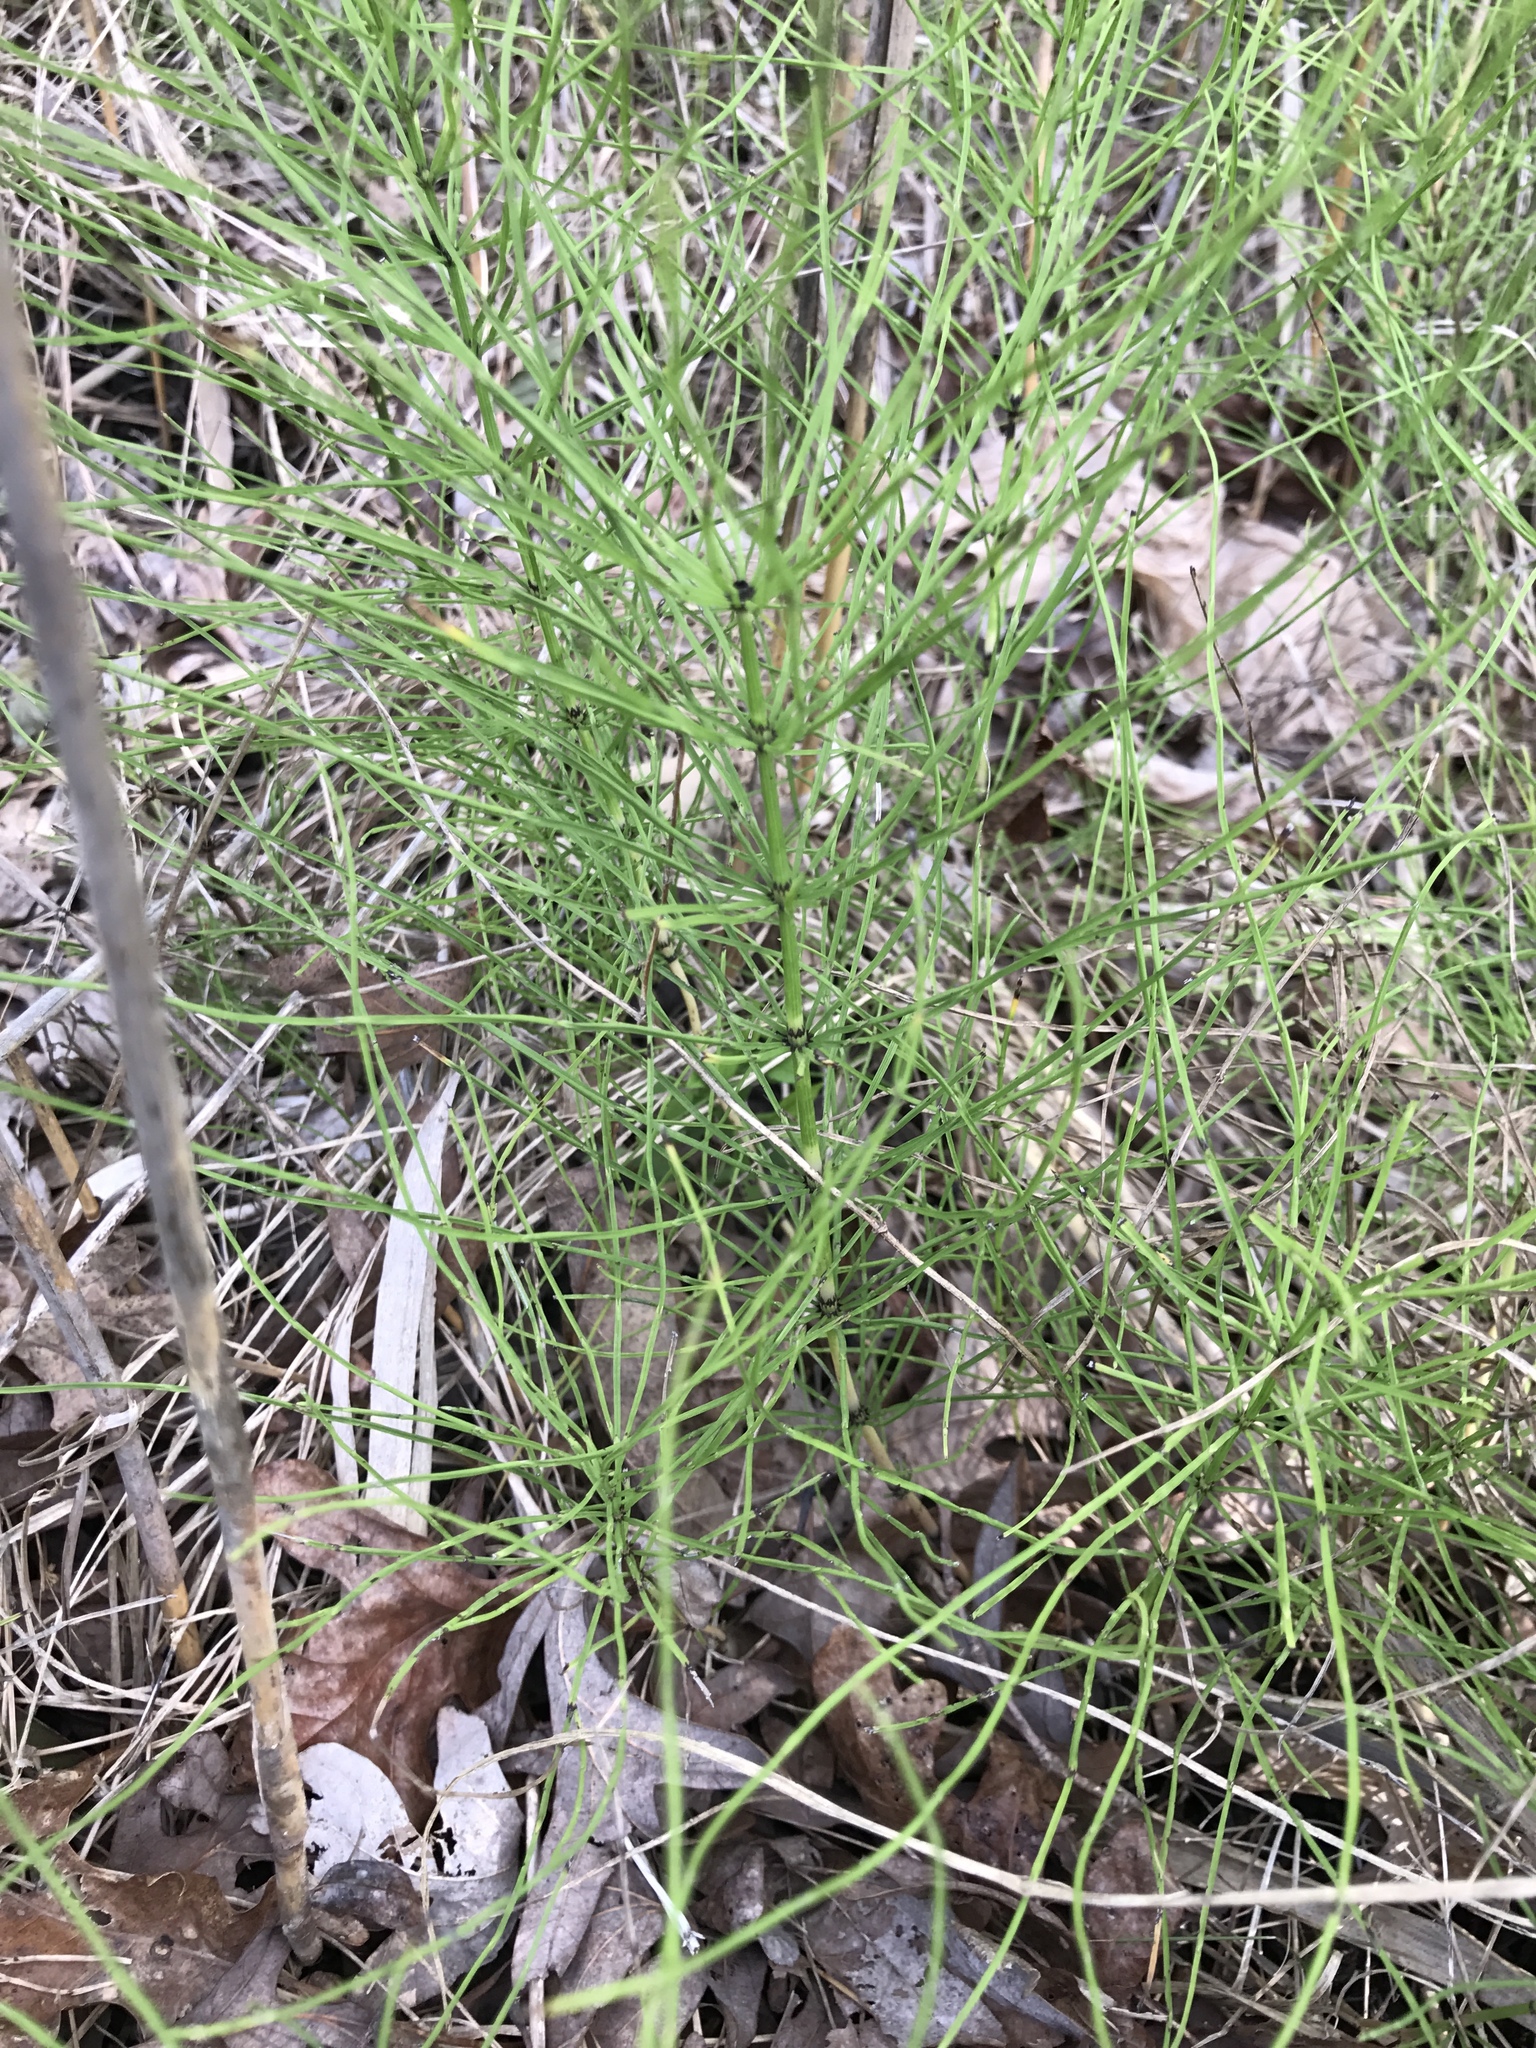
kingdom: Plantae
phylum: Tracheophyta
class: Polypodiopsida
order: Equisetales
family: Equisetaceae
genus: Equisetum
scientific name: Equisetum arvense
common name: Field horsetail
